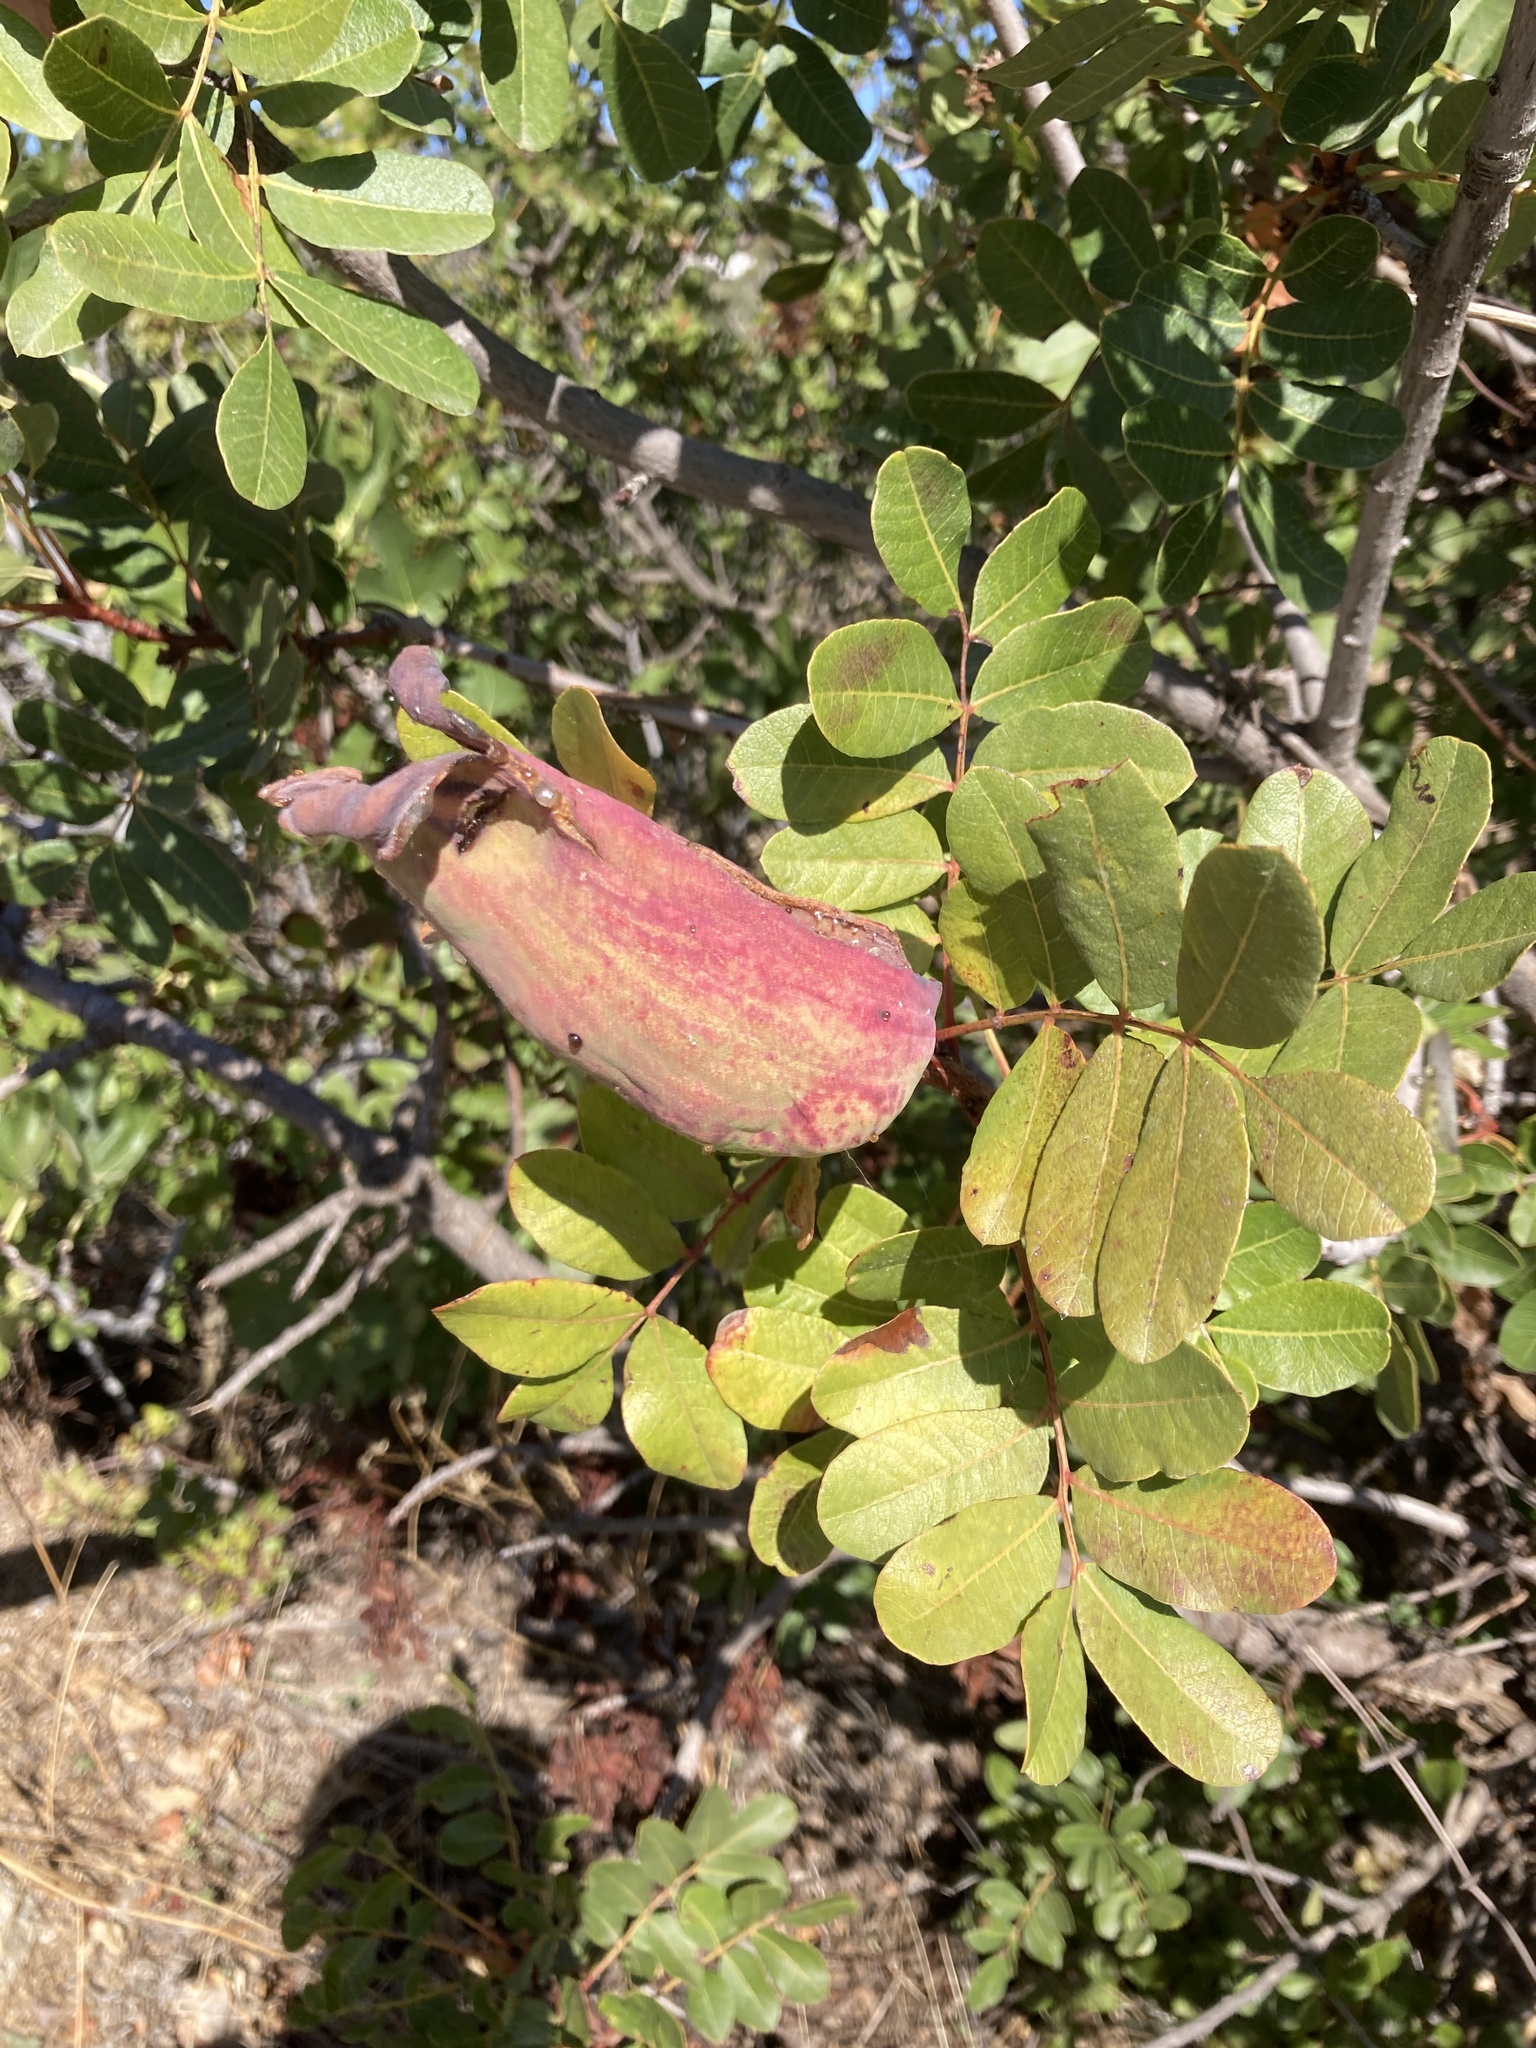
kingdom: Plantae
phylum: Tracheophyta
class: Magnoliopsida
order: Sapindales
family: Anacardiaceae
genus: Pistacia
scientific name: Pistacia terebinthus
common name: Terebinth
